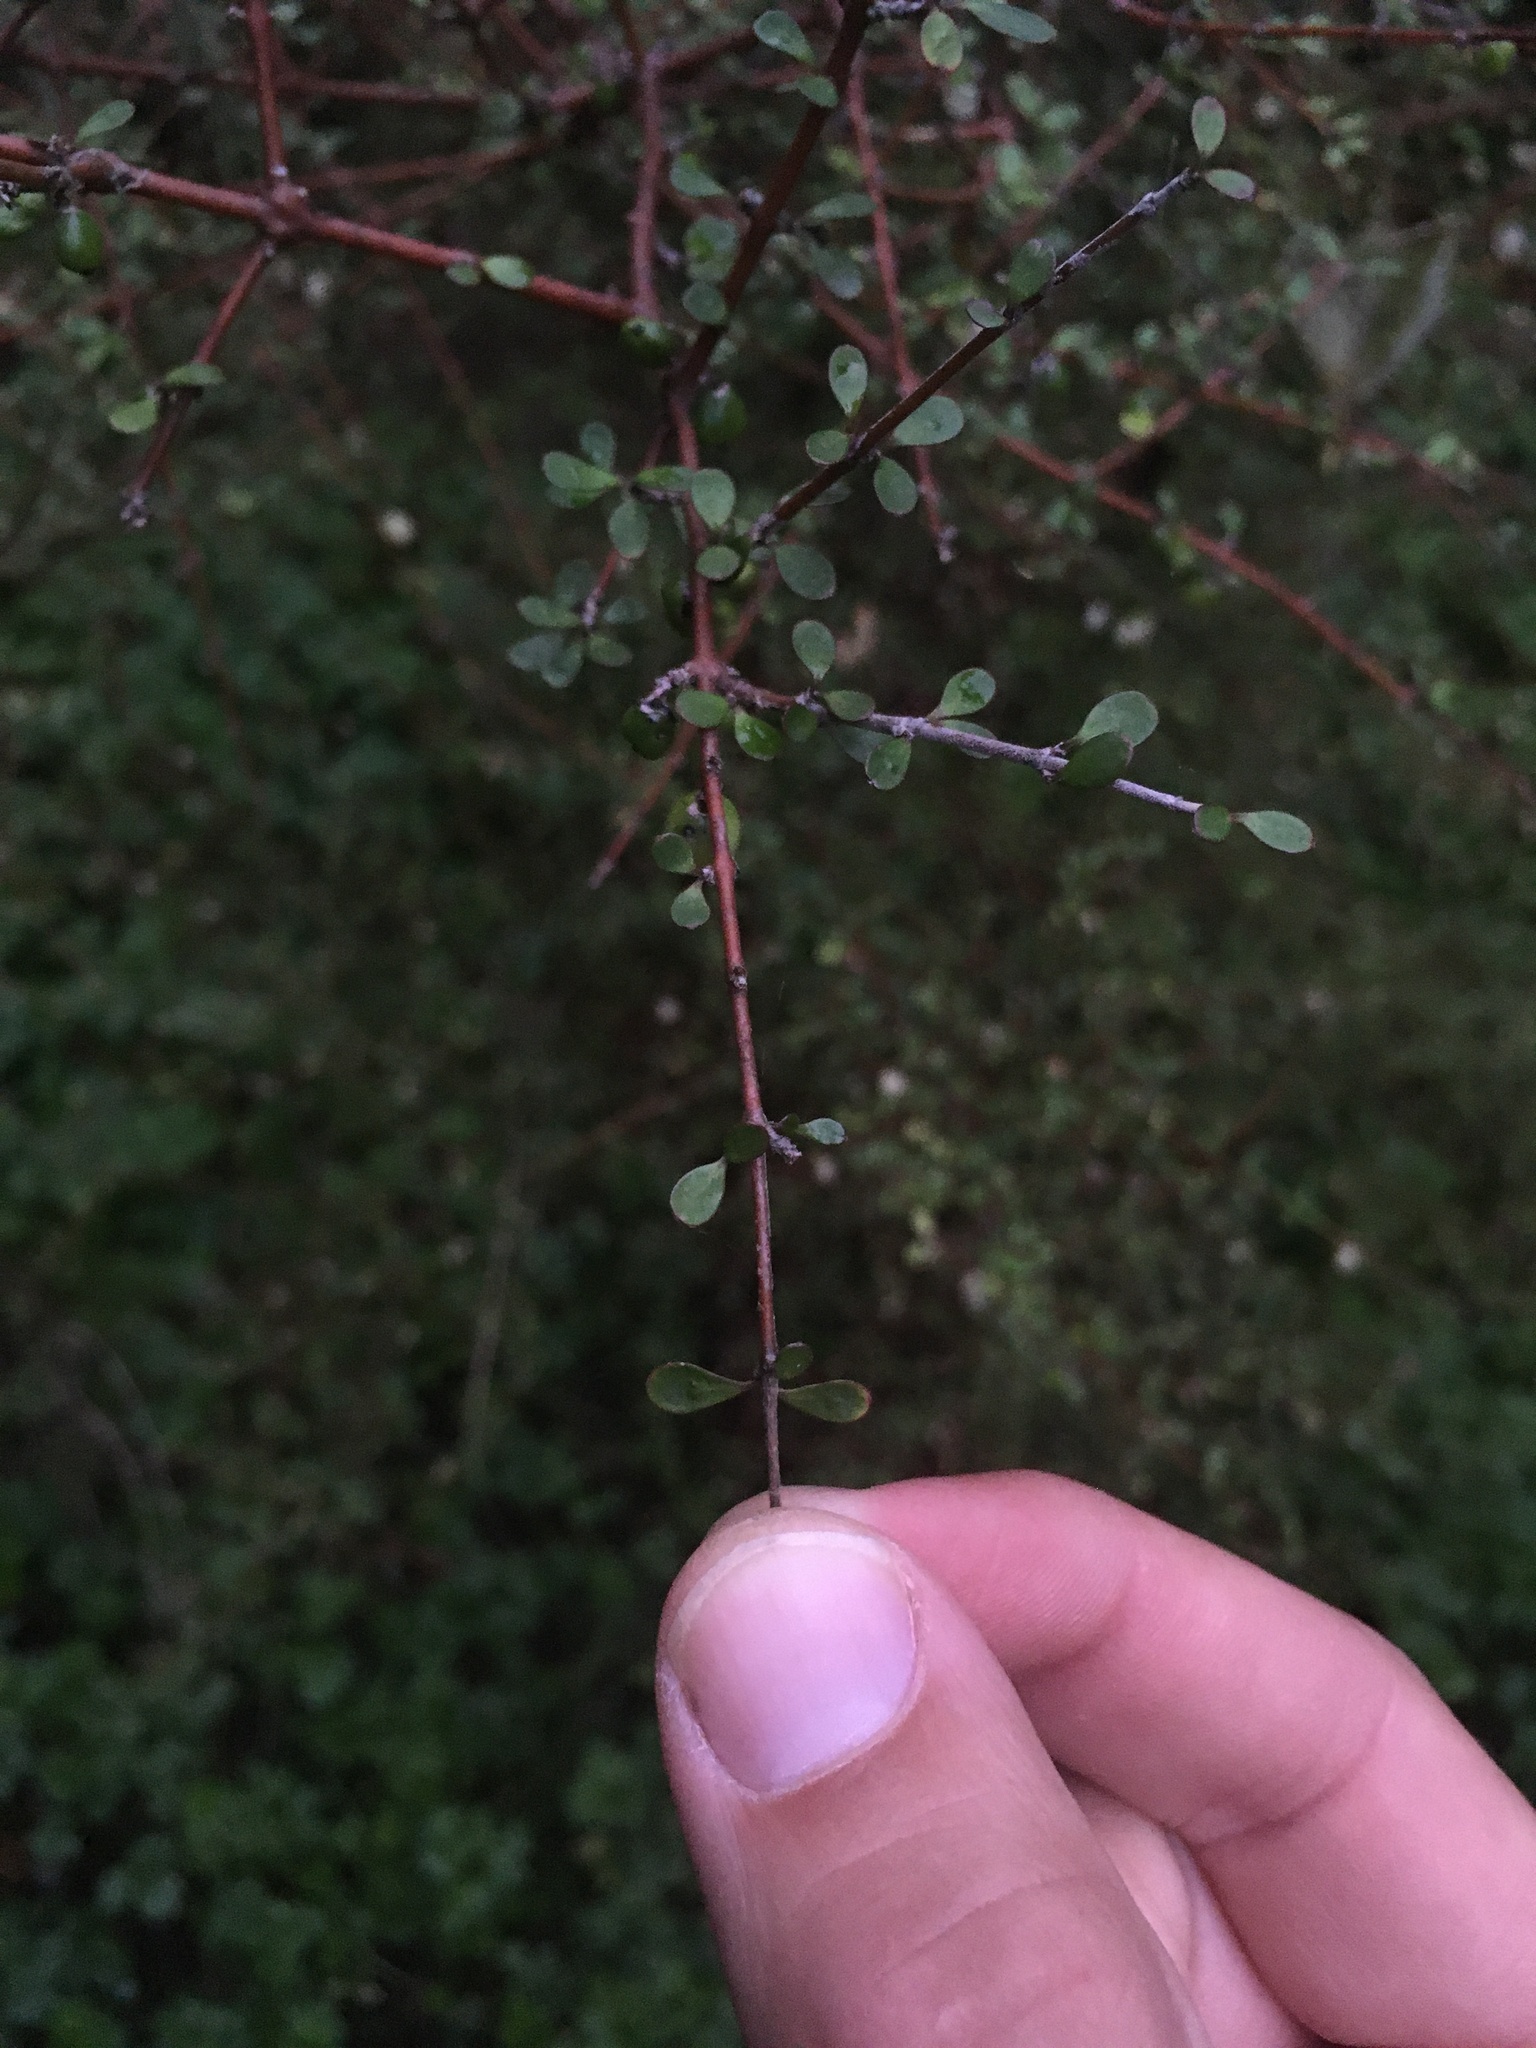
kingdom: Plantae
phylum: Tracheophyta
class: Magnoliopsida
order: Gentianales
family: Rubiaceae
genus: Coprosma
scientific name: Coprosma rigida
